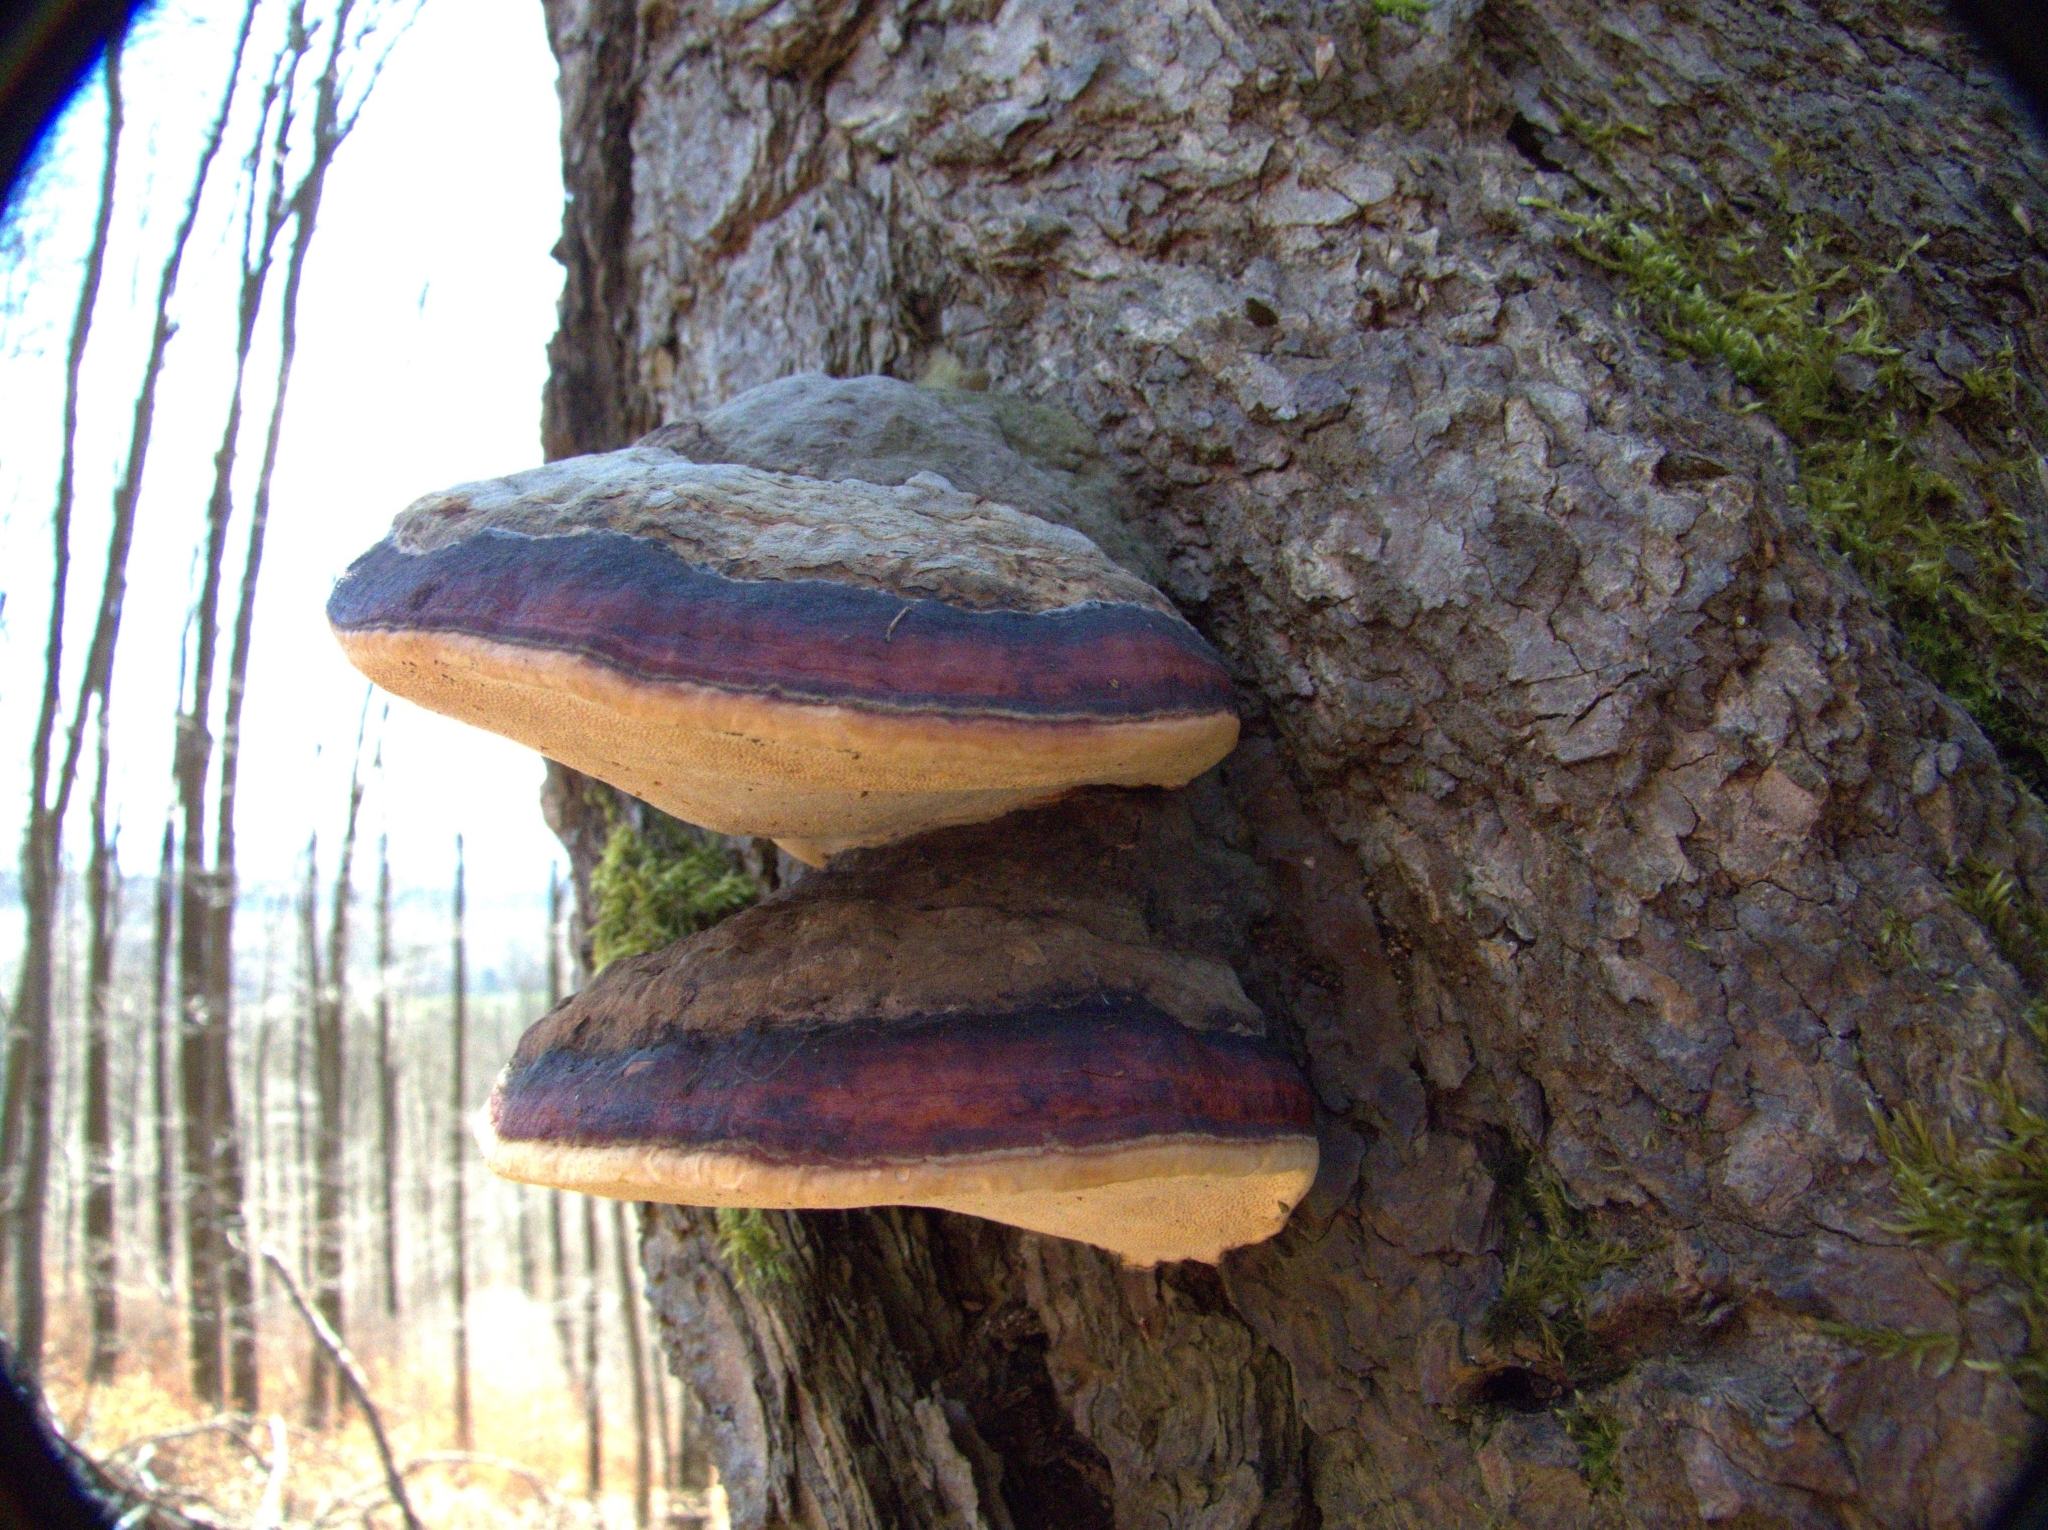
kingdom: Fungi
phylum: Basidiomycota
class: Agaricomycetes
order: Polyporales
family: Fomitopsidaceae
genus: Fomitopsis
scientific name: Fomitopsis pinicola
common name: Red-belted bracket
